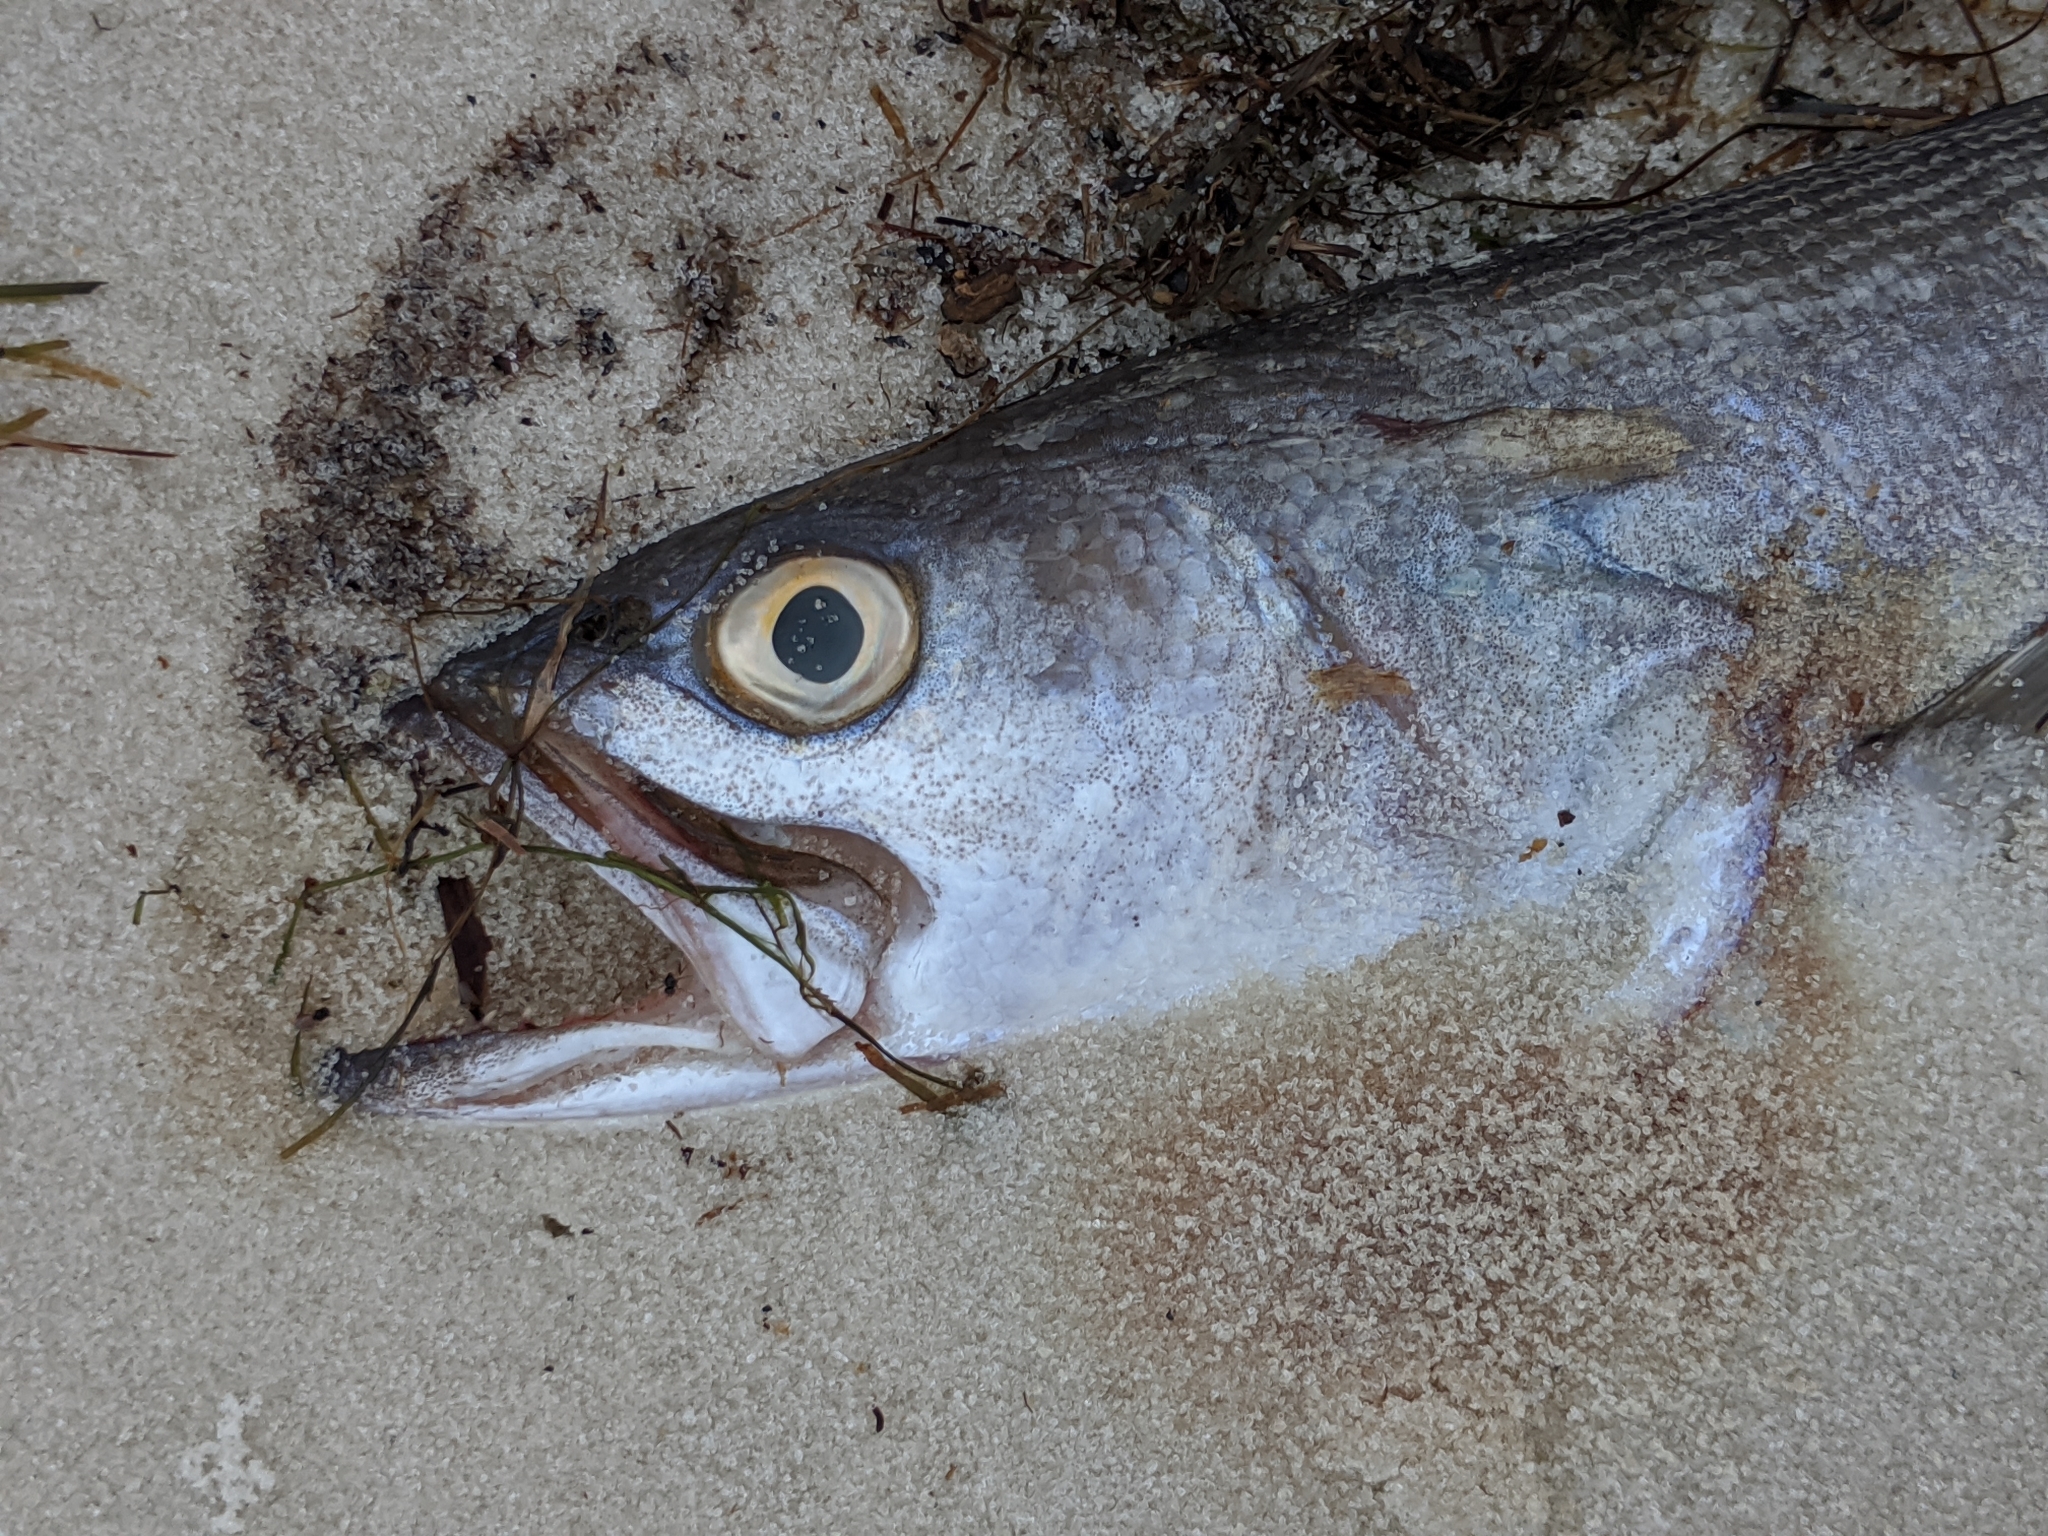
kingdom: Animalia
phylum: Chordata
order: Perciformes
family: Sciaenidae
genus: Cynoscion
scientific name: Cynoscion nebulosus
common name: Spotted seatrout
